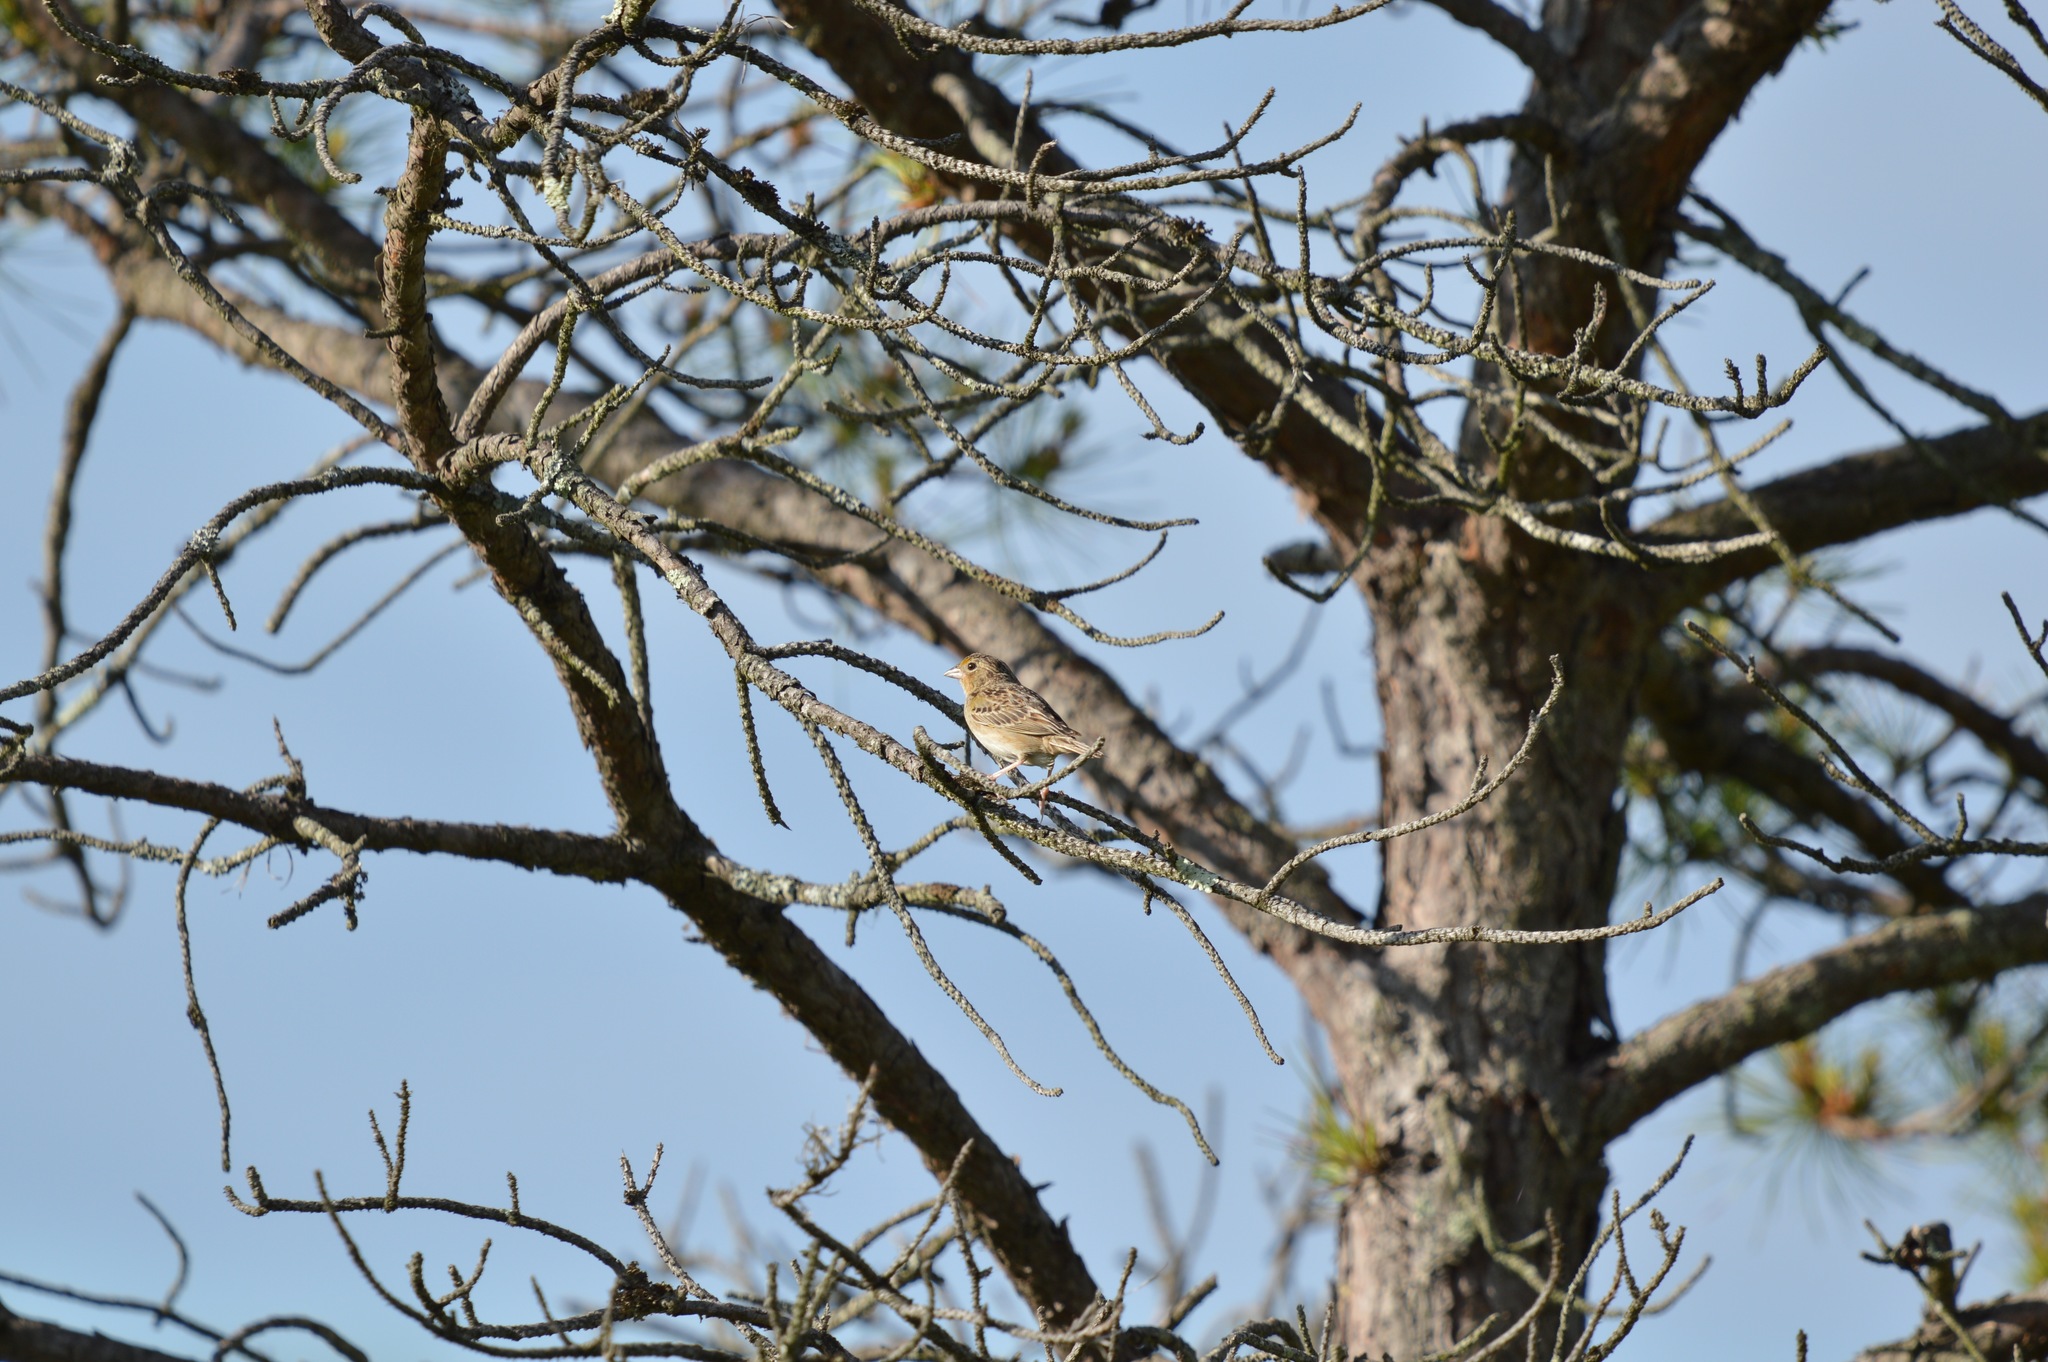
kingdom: Animalia
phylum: Chordata
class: Aves
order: Passeriformes
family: Passerellidae
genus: Ammodramus
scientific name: Ammodramus savannarum
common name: Grasshopper sparrow
